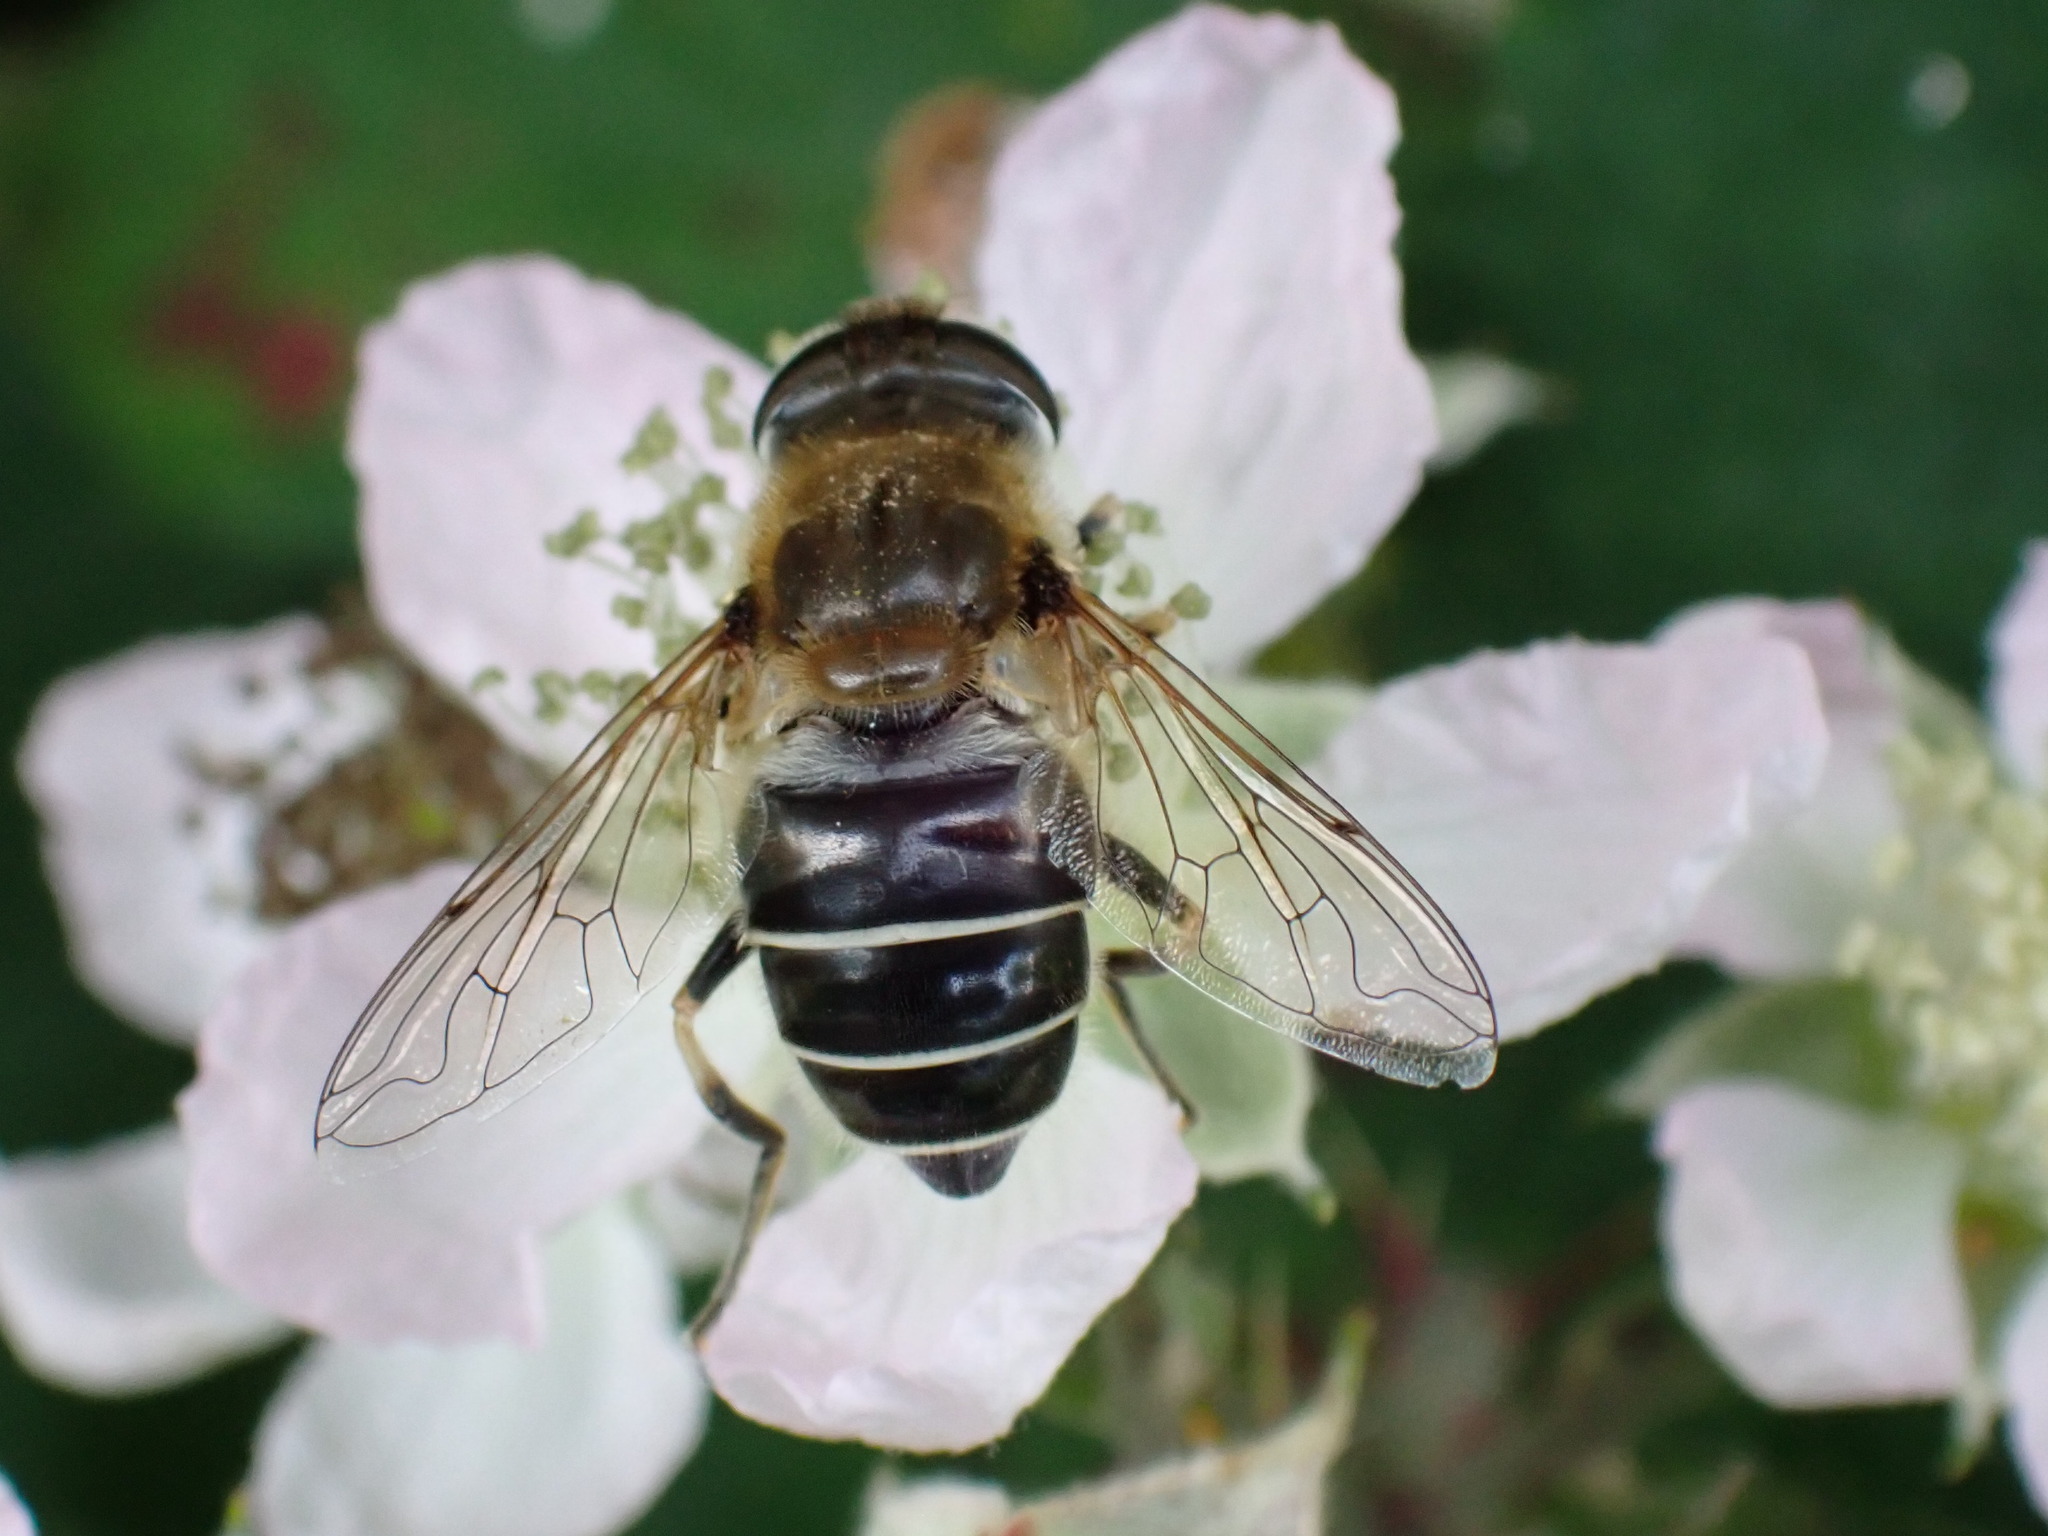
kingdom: Animalia
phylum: Arthropoda
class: Insecta
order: Diptera
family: Syrphidae
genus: Eristalis
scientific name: Eristalis nemorum
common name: Orange-spined drone fly
